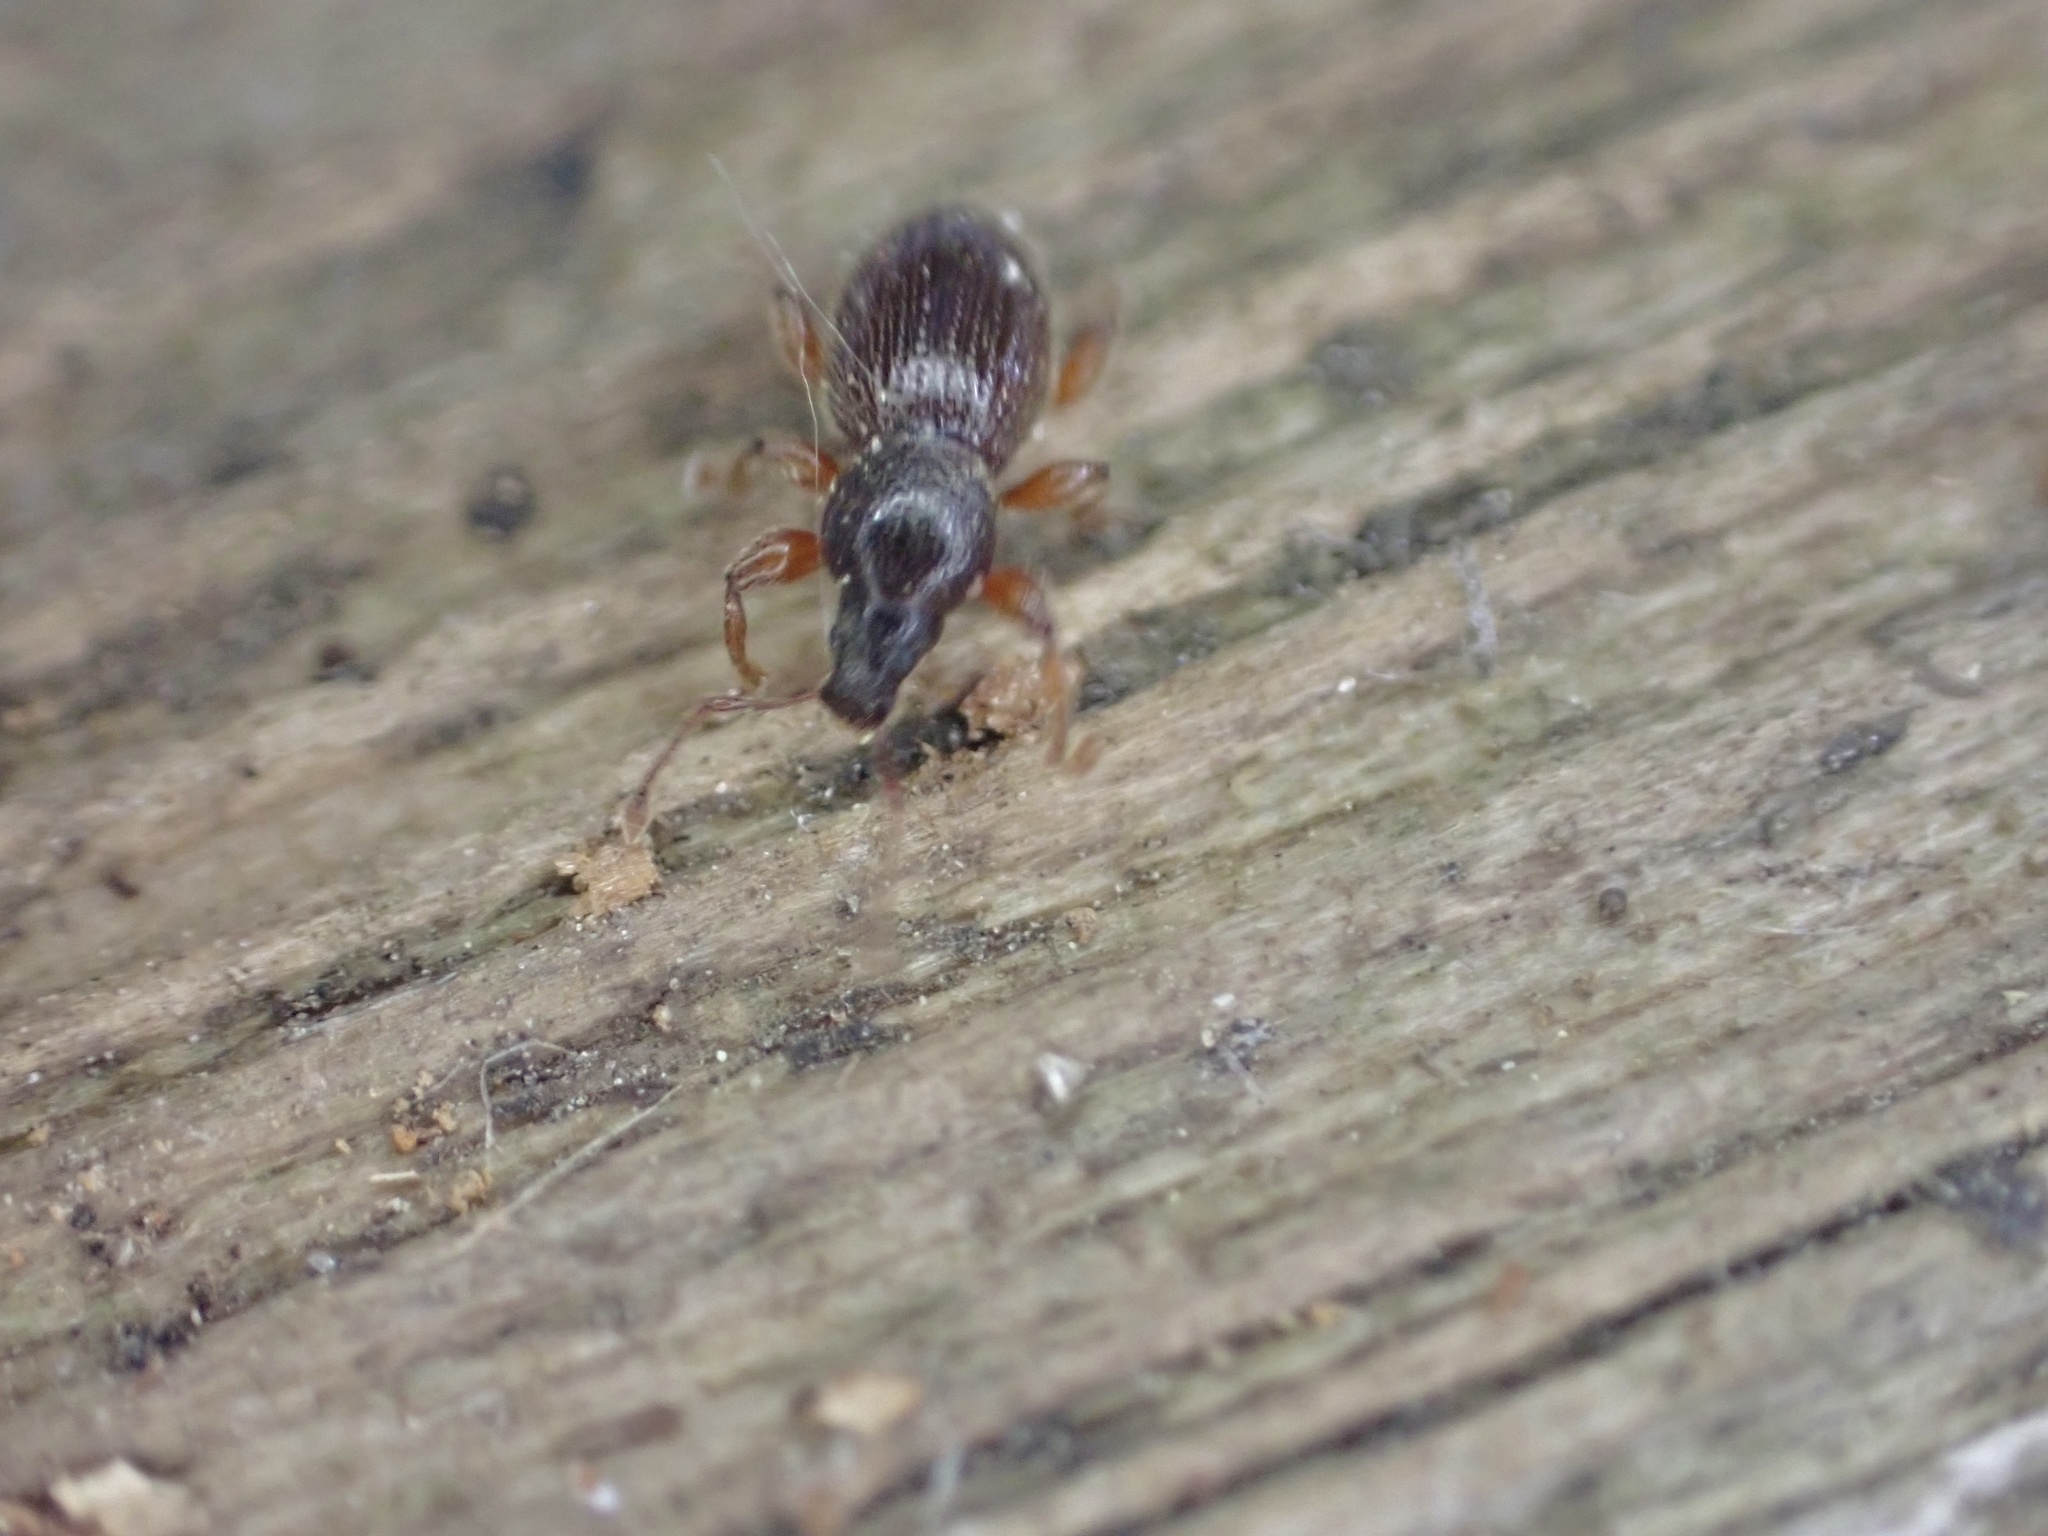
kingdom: Animalia
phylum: Arthropoda
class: Insecta
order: Coleoptera
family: Curculionidae
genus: Exomias
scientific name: Exomias pellucidus
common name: Hairy spider weevil
